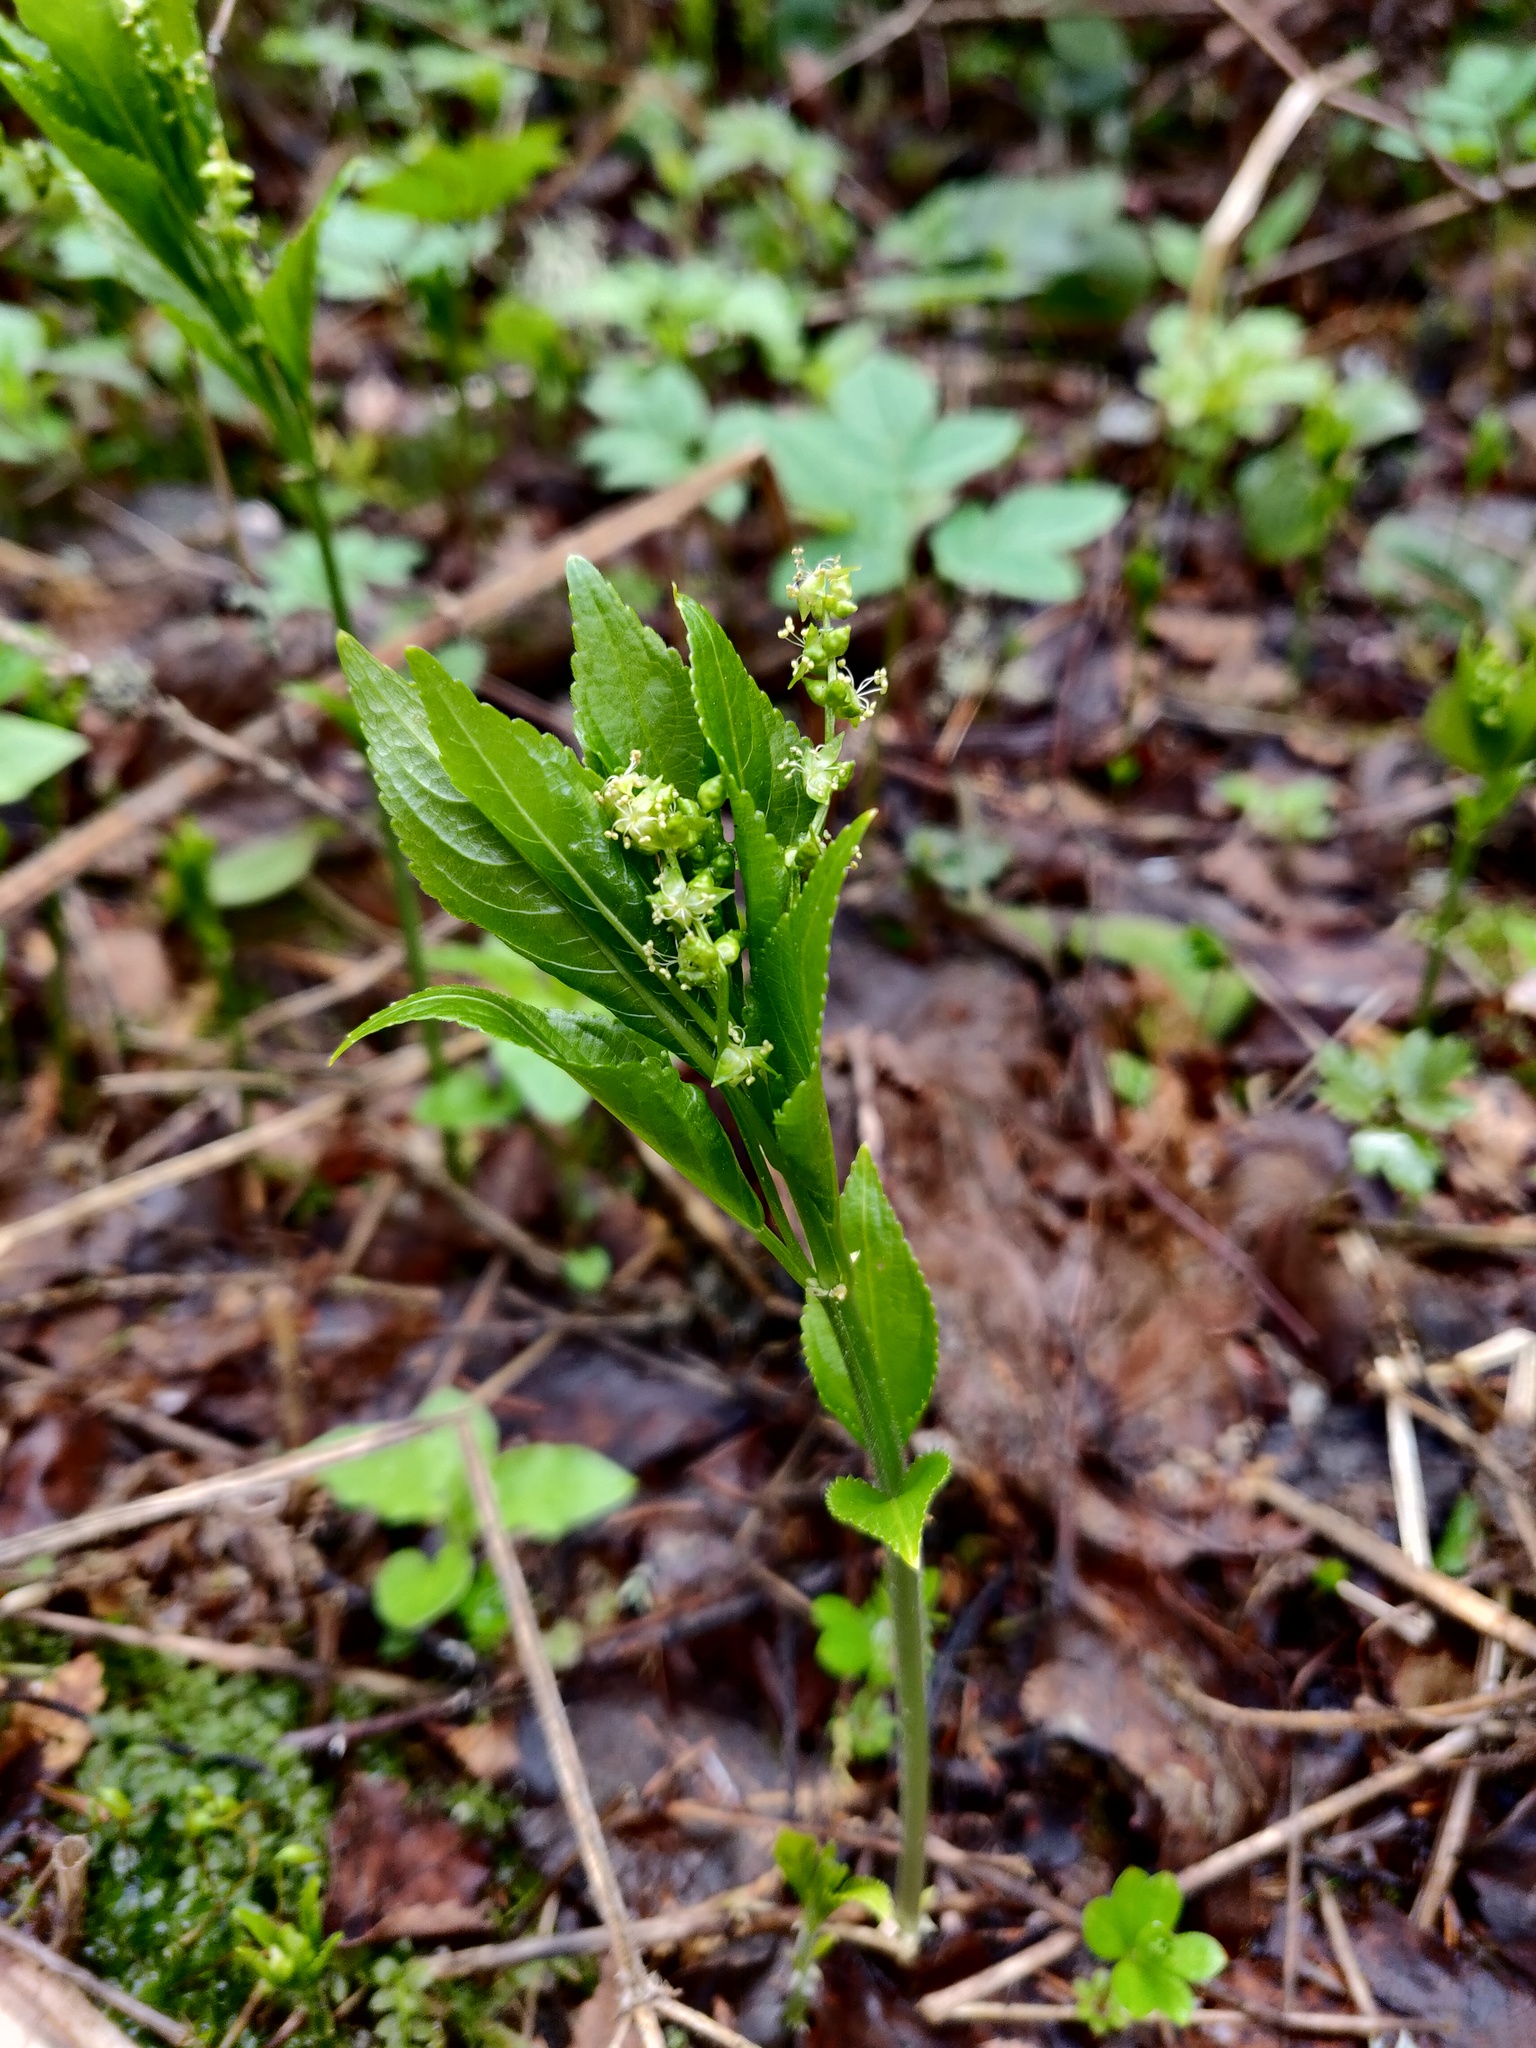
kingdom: Plantae
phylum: Tracheophyta
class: Magnoliopsida
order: Malpighiales
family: Euphorbiaceae
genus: Mercurialis
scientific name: Mercurialis perennis
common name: Dog mercury
